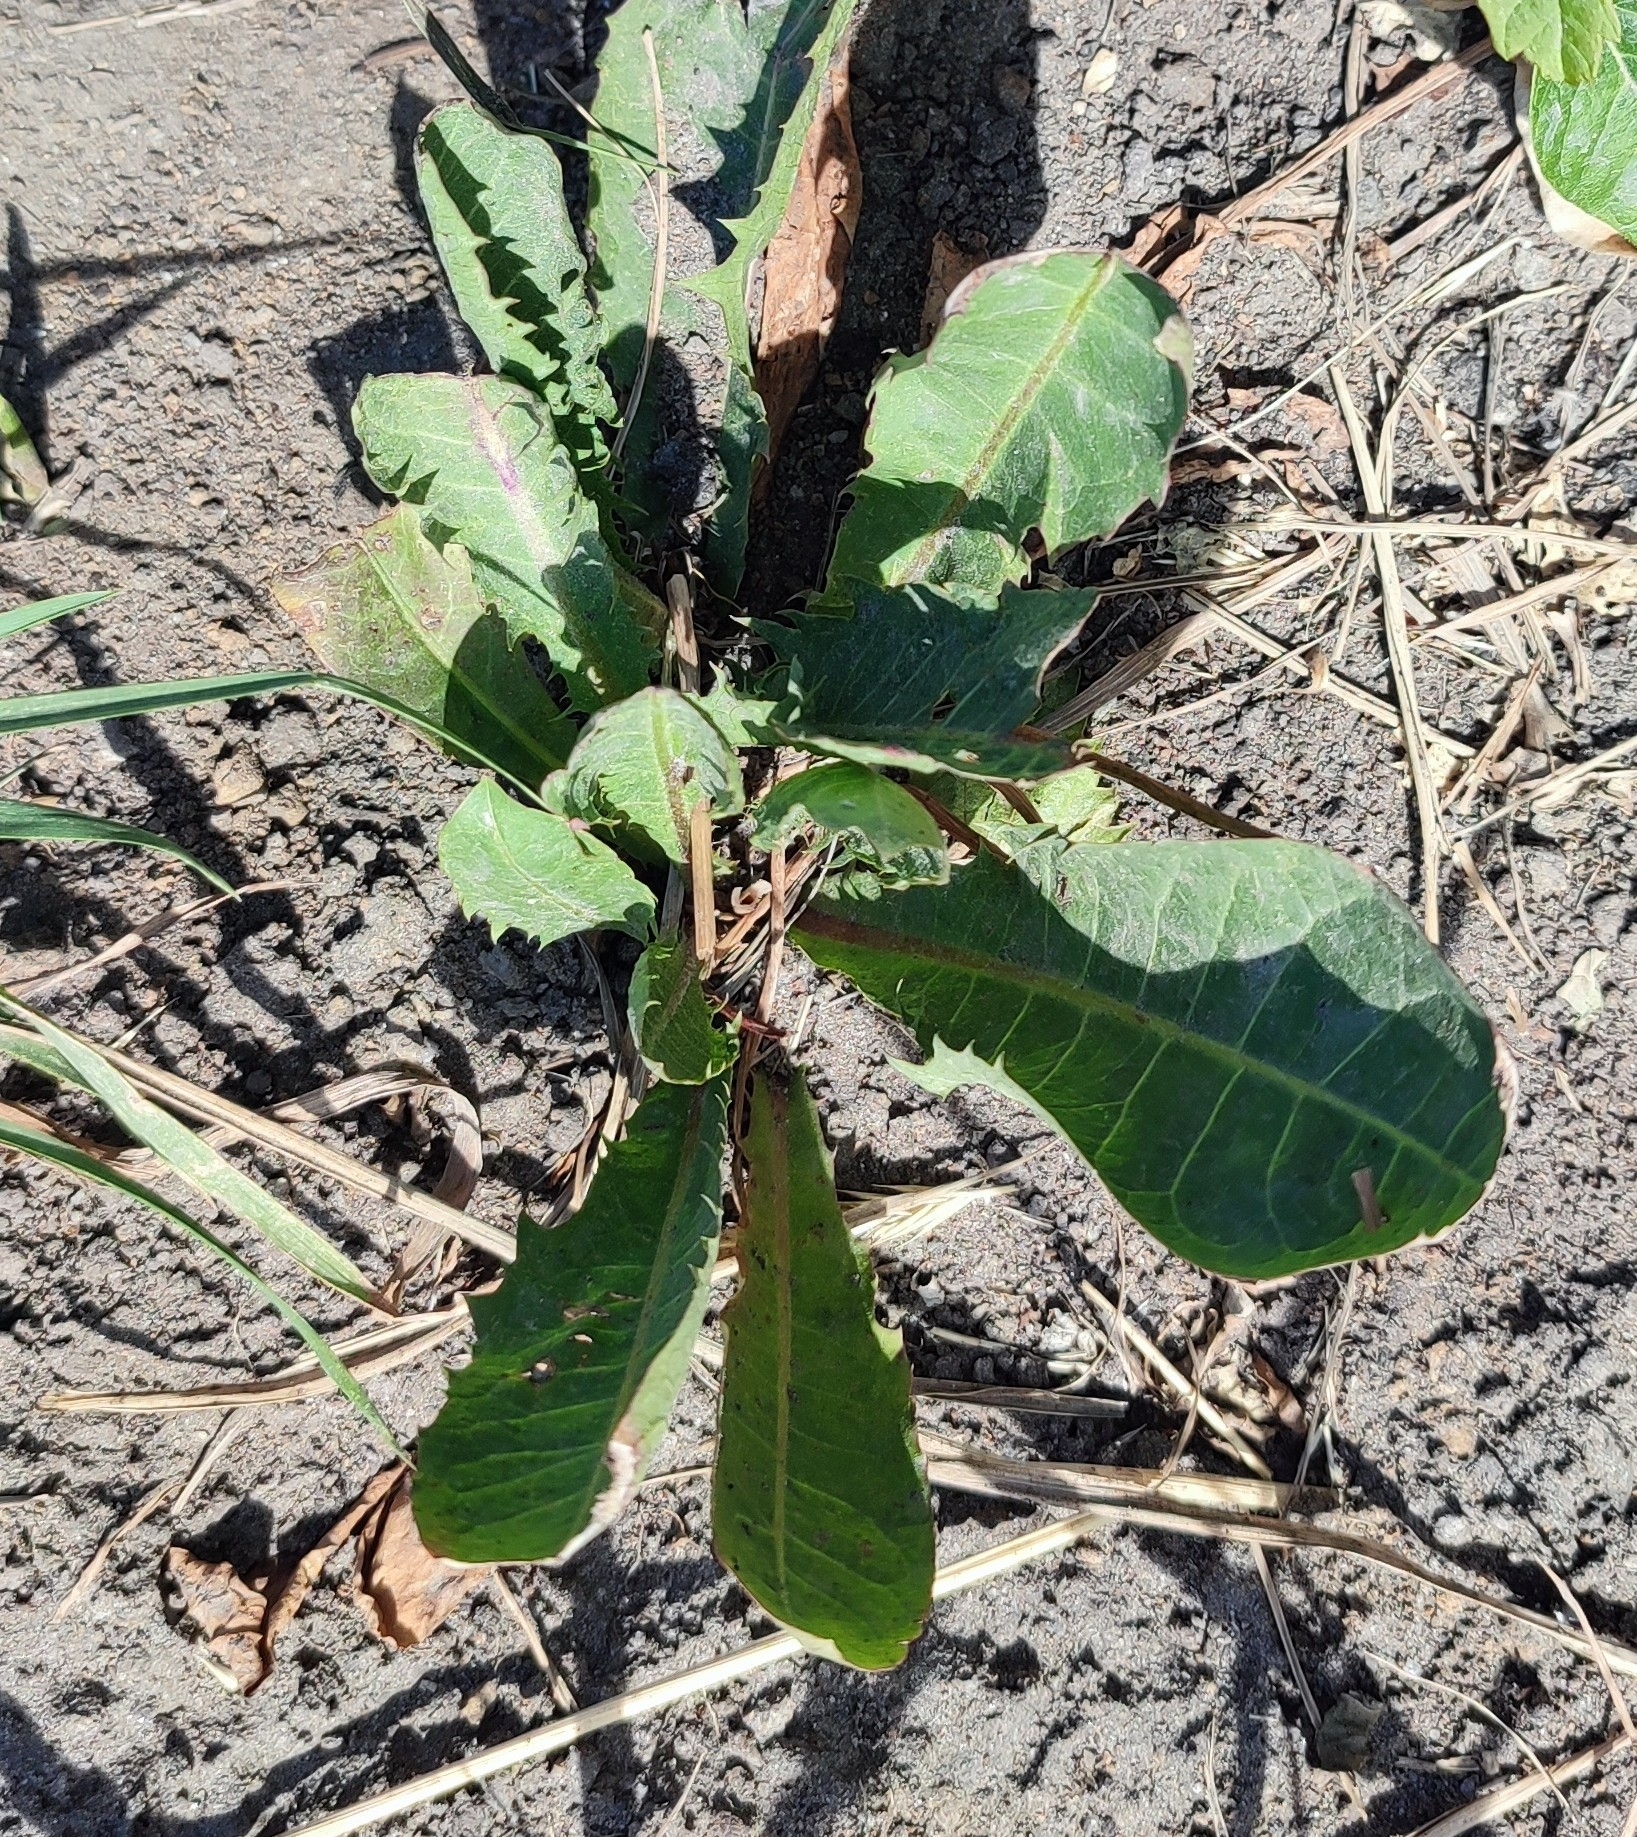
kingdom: Plantae
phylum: Tracheophyta
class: Magnoliopsida
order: Asterales
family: Asteraceae
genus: Taraxacum
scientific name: Taraxacum officinale
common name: Common dandelion
